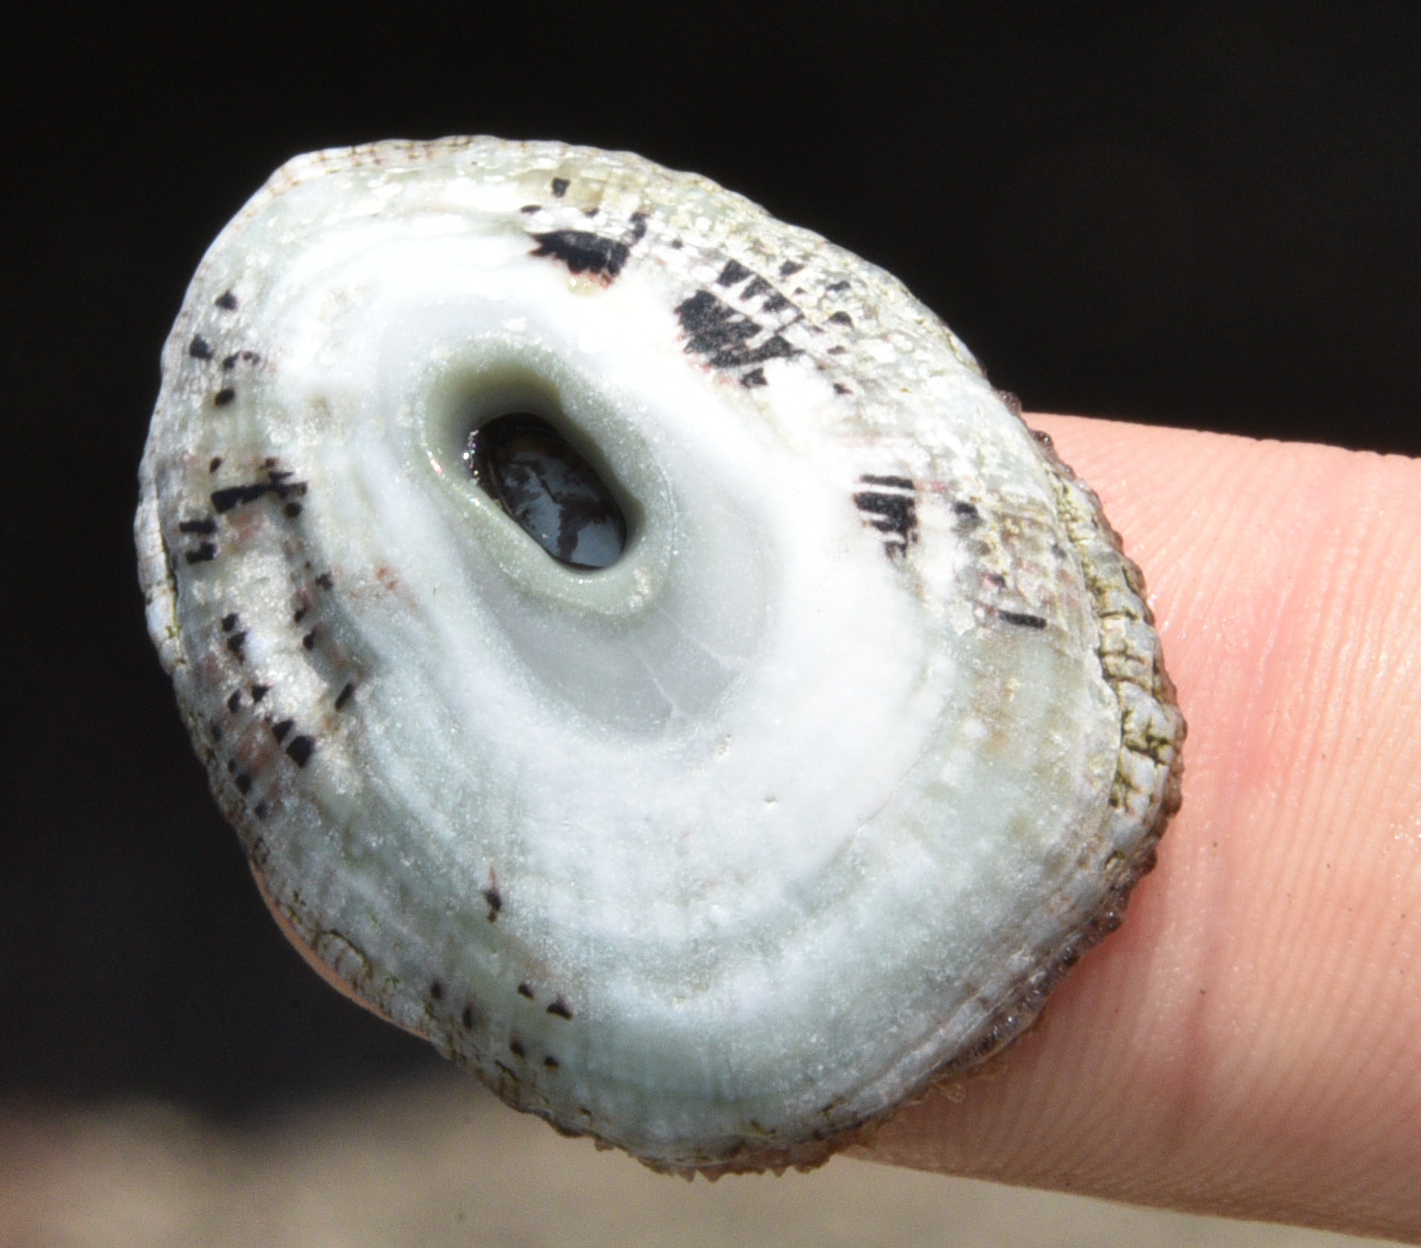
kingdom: Animalia
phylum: Mollusca
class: Gastropoda
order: Lepetellida
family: Fissurellidae
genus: Fissurella
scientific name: Fissurella virescens
